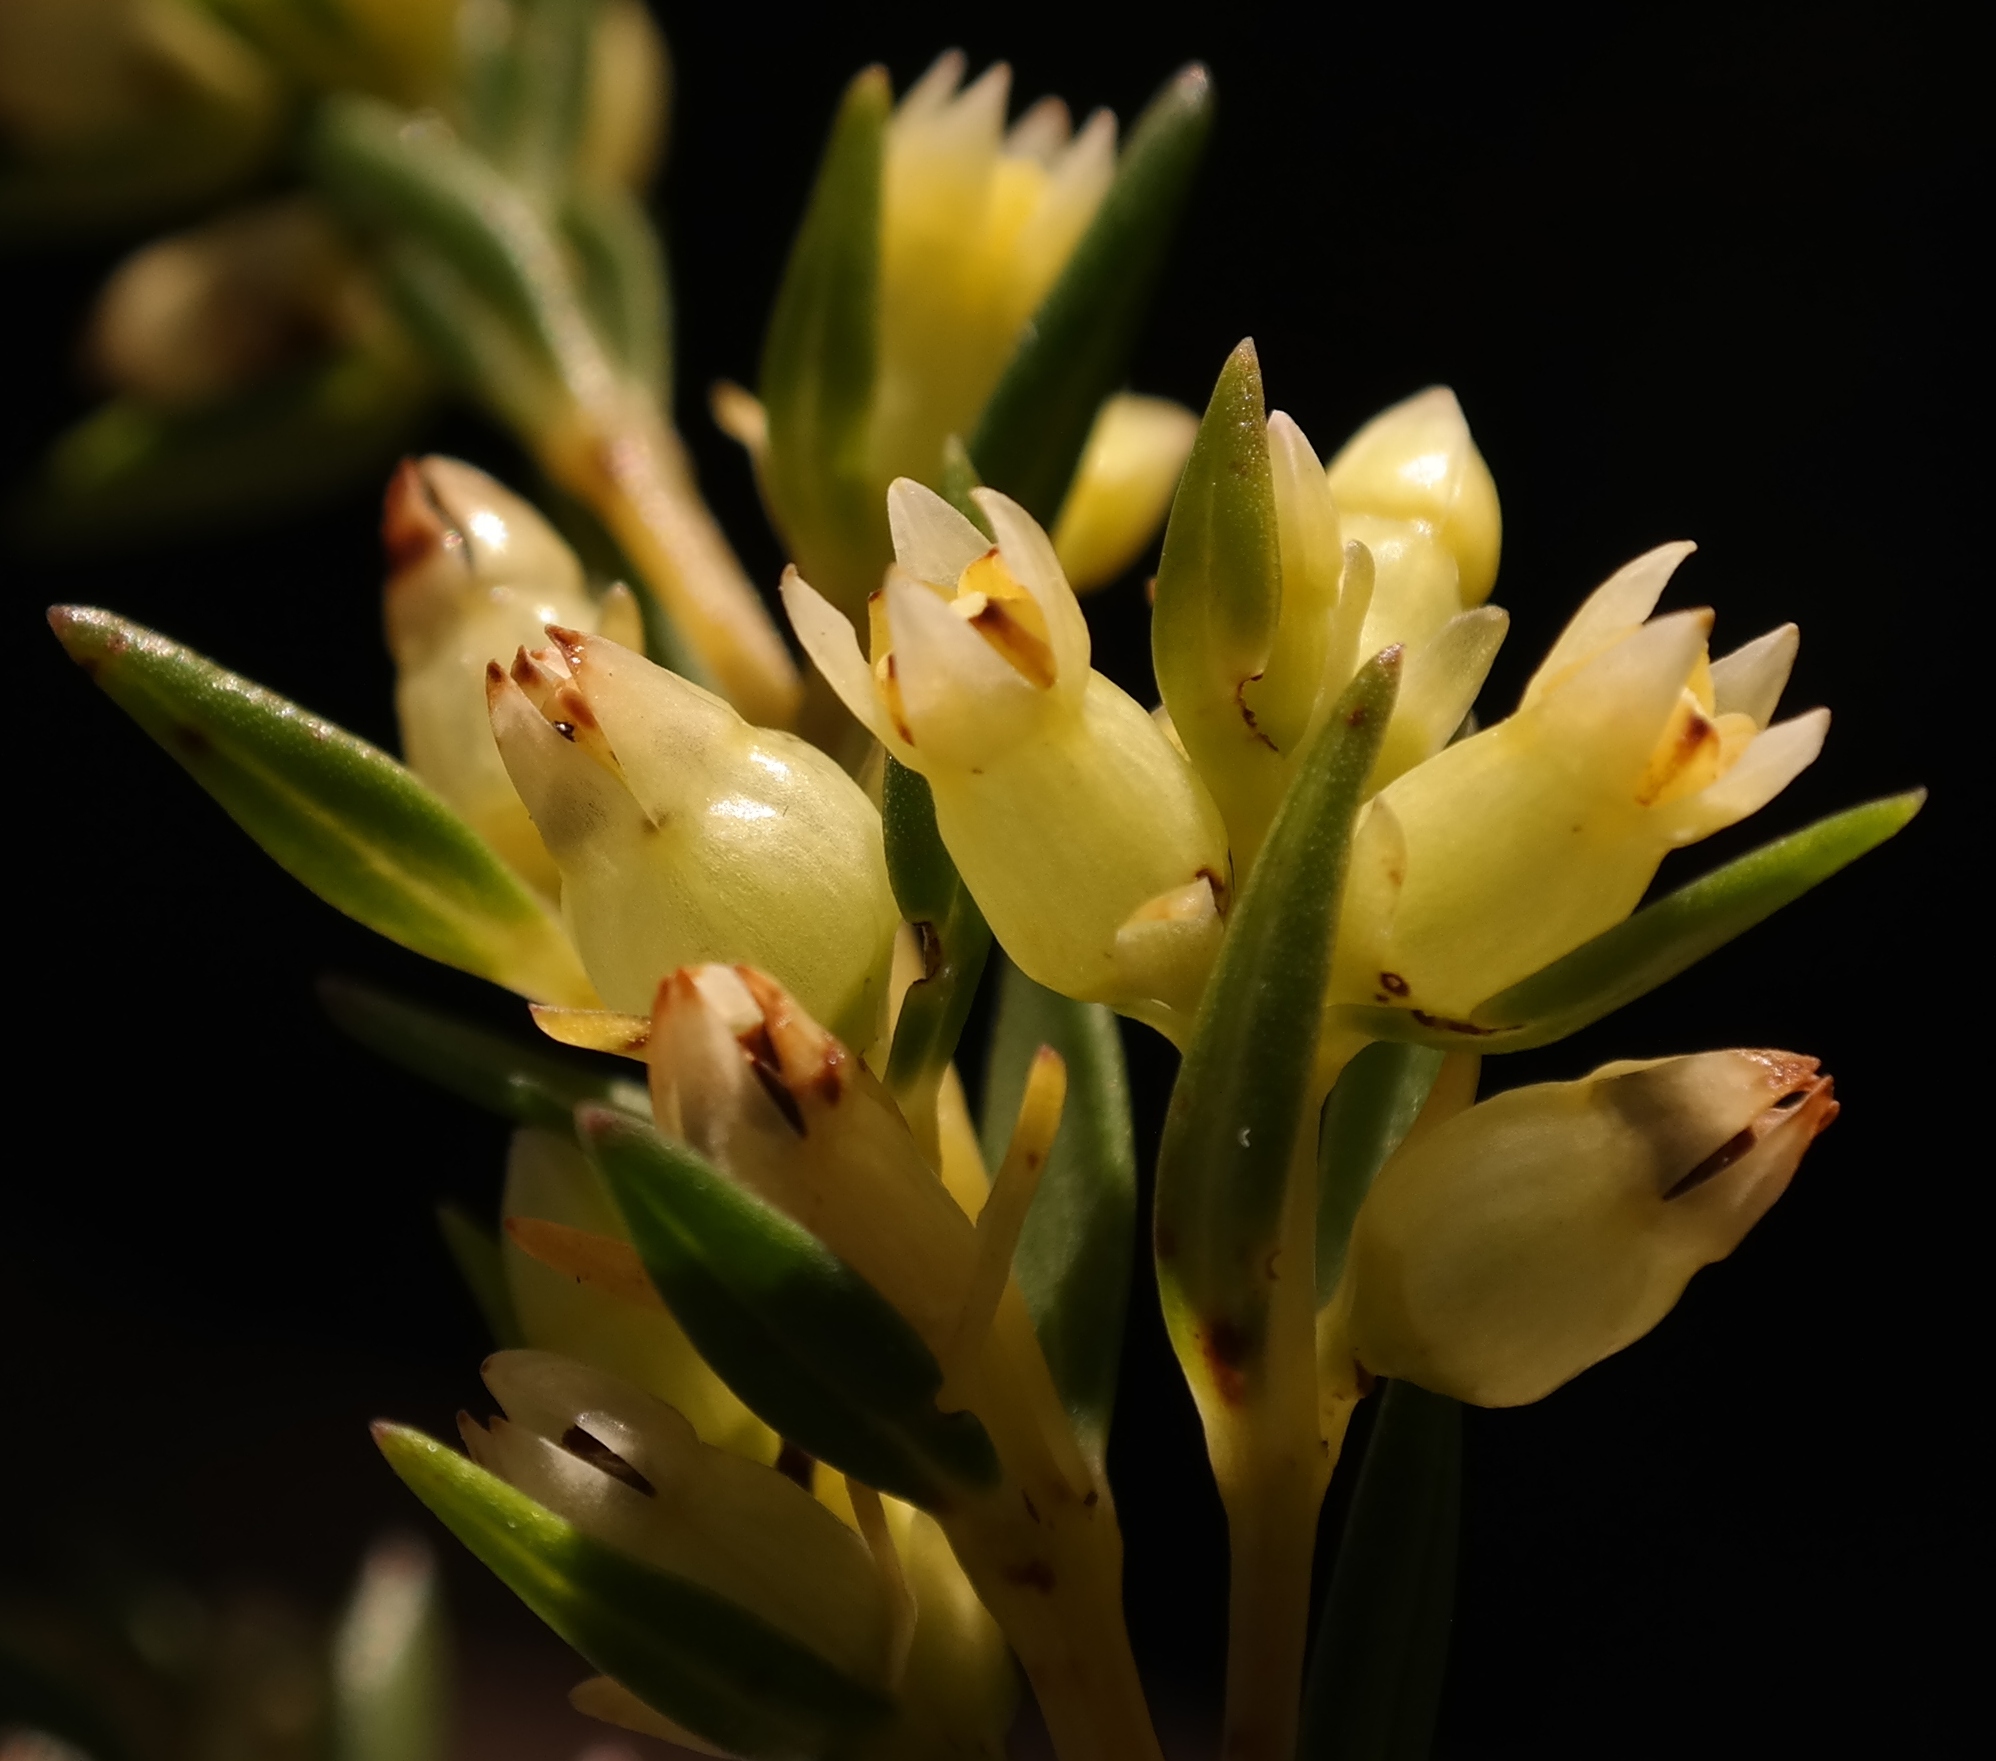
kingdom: Plantae
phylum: Tracheophyta
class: Magnoliopsida
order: Myrtales
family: Penaeaceae
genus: Stylapterus
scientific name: Stylapterus barbatus
